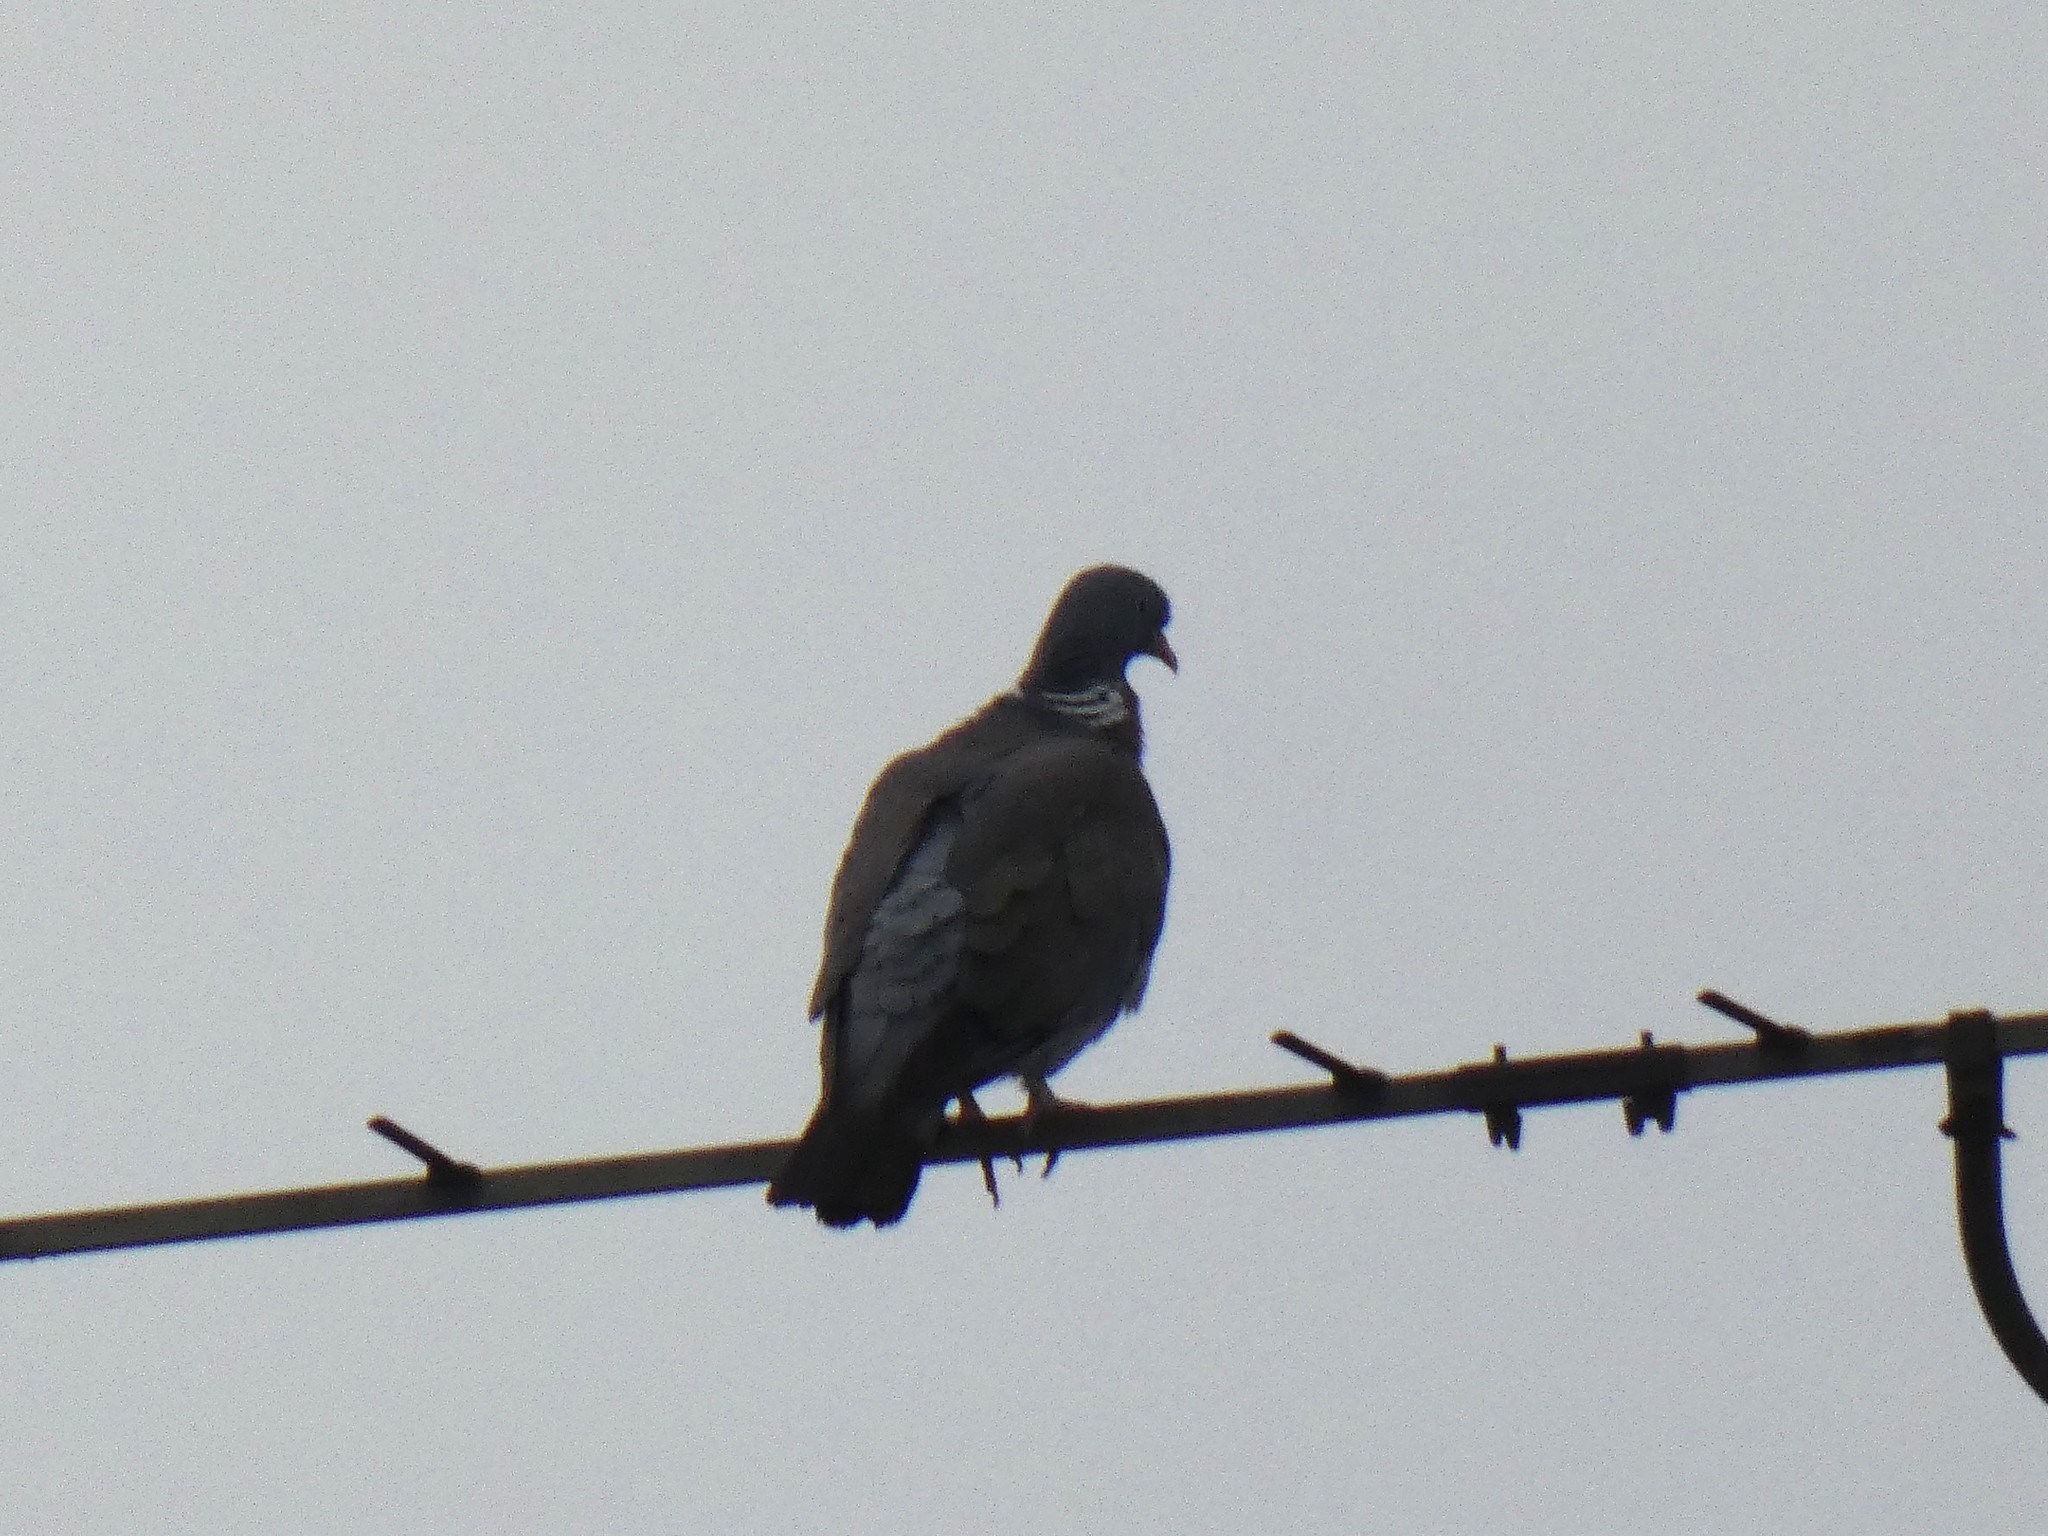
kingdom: Animalia
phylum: Chordata
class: Aves
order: Columbiformes
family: Columbidae
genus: Columba
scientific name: Columba palumbus
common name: Common wood pigeon
